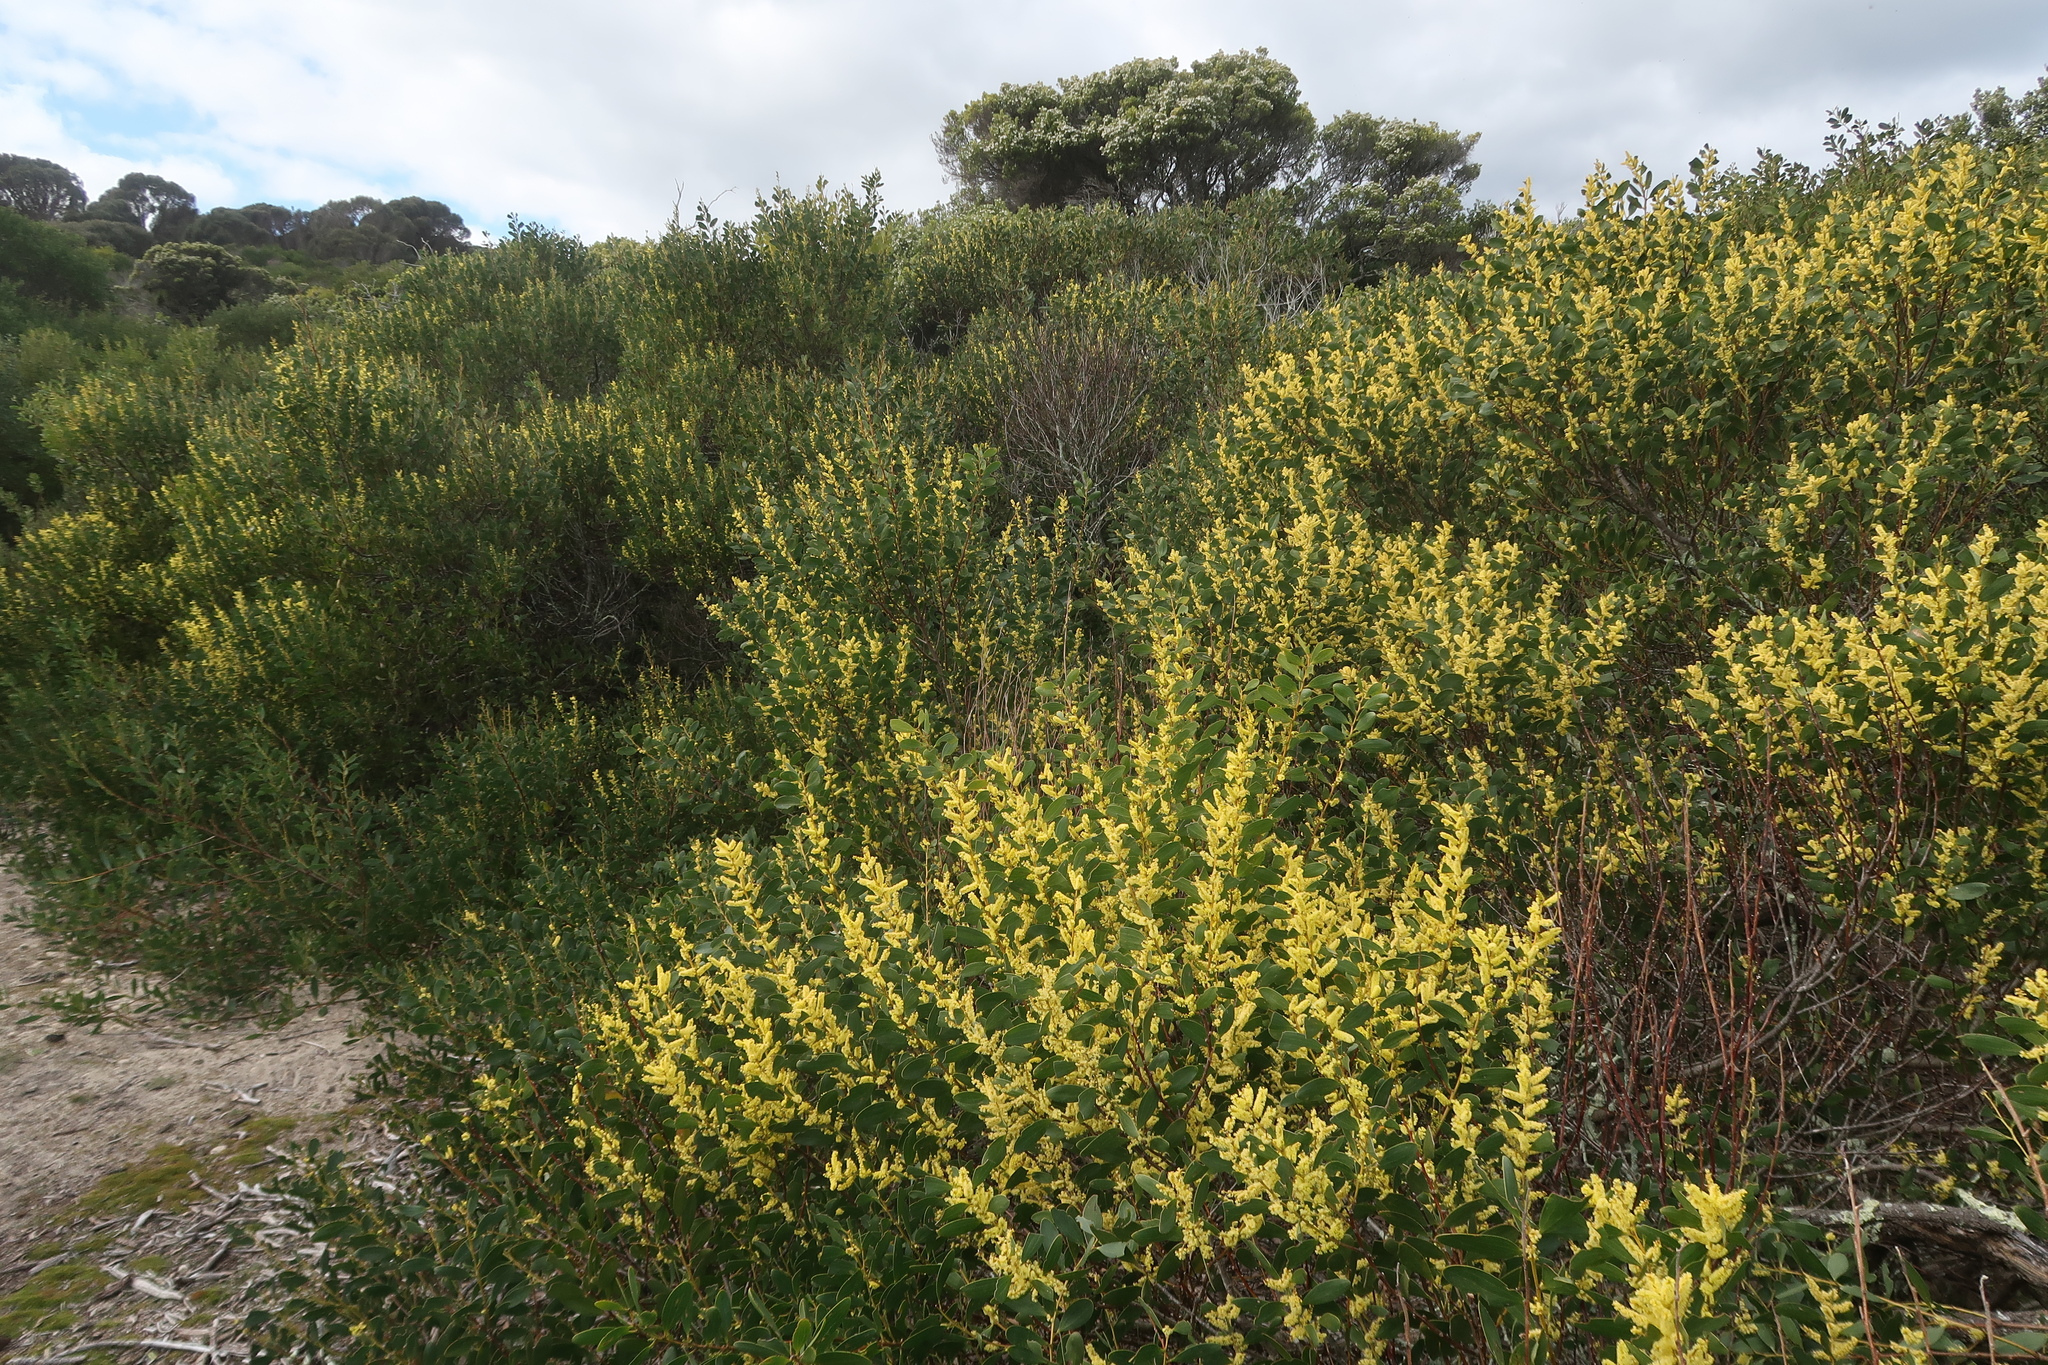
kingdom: Plantae
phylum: Tracheophyta
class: Magnoliopsida
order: Fabales
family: Fabaceae
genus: Acacia
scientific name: Acacia longifolia
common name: Sydney golden wattle
